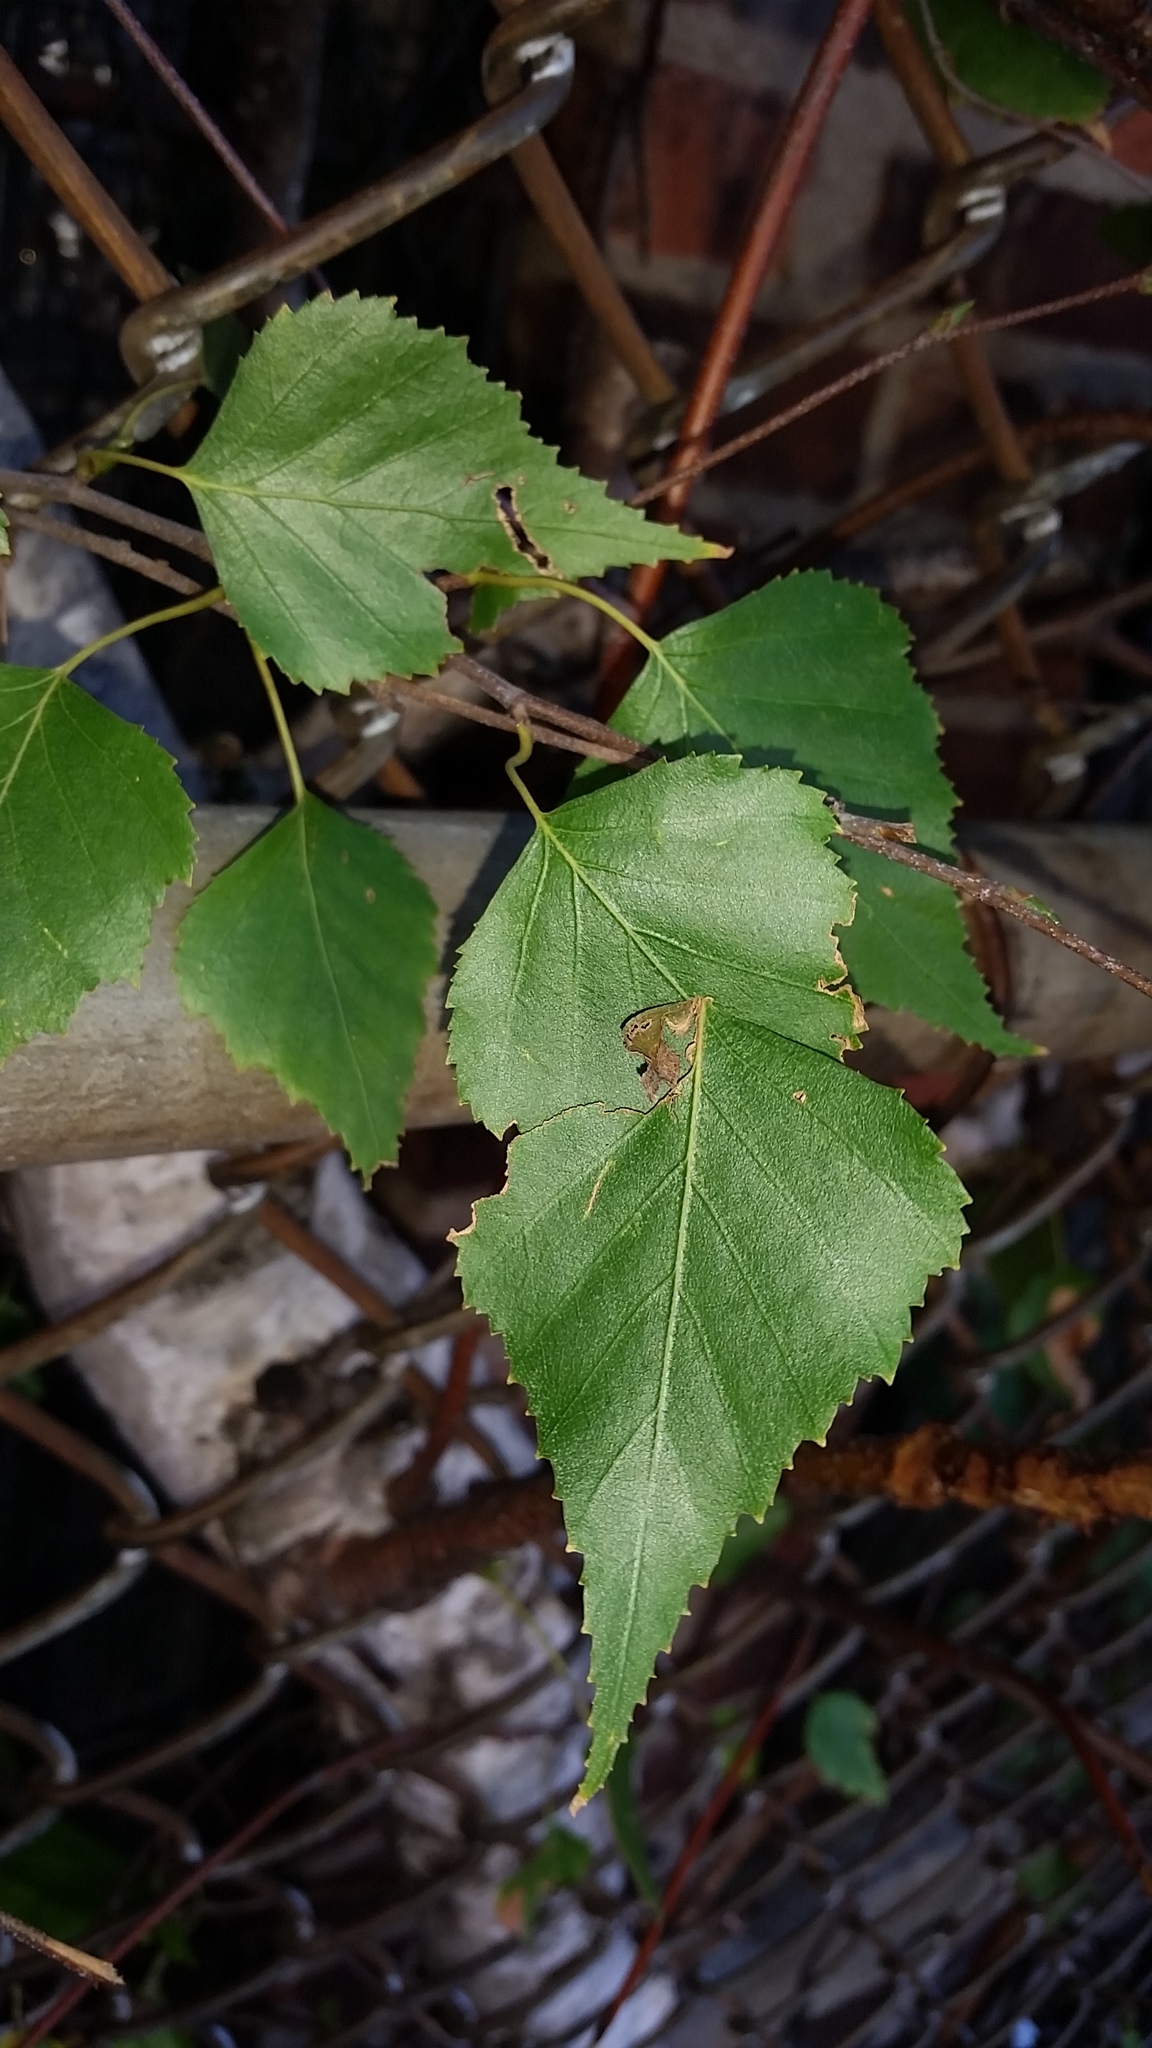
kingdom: Plantae
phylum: Tracheophyta
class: Magnoliopsida
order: Fagales
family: Betulaceae
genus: Betula
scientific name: Betula populifolia
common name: Fire birch
